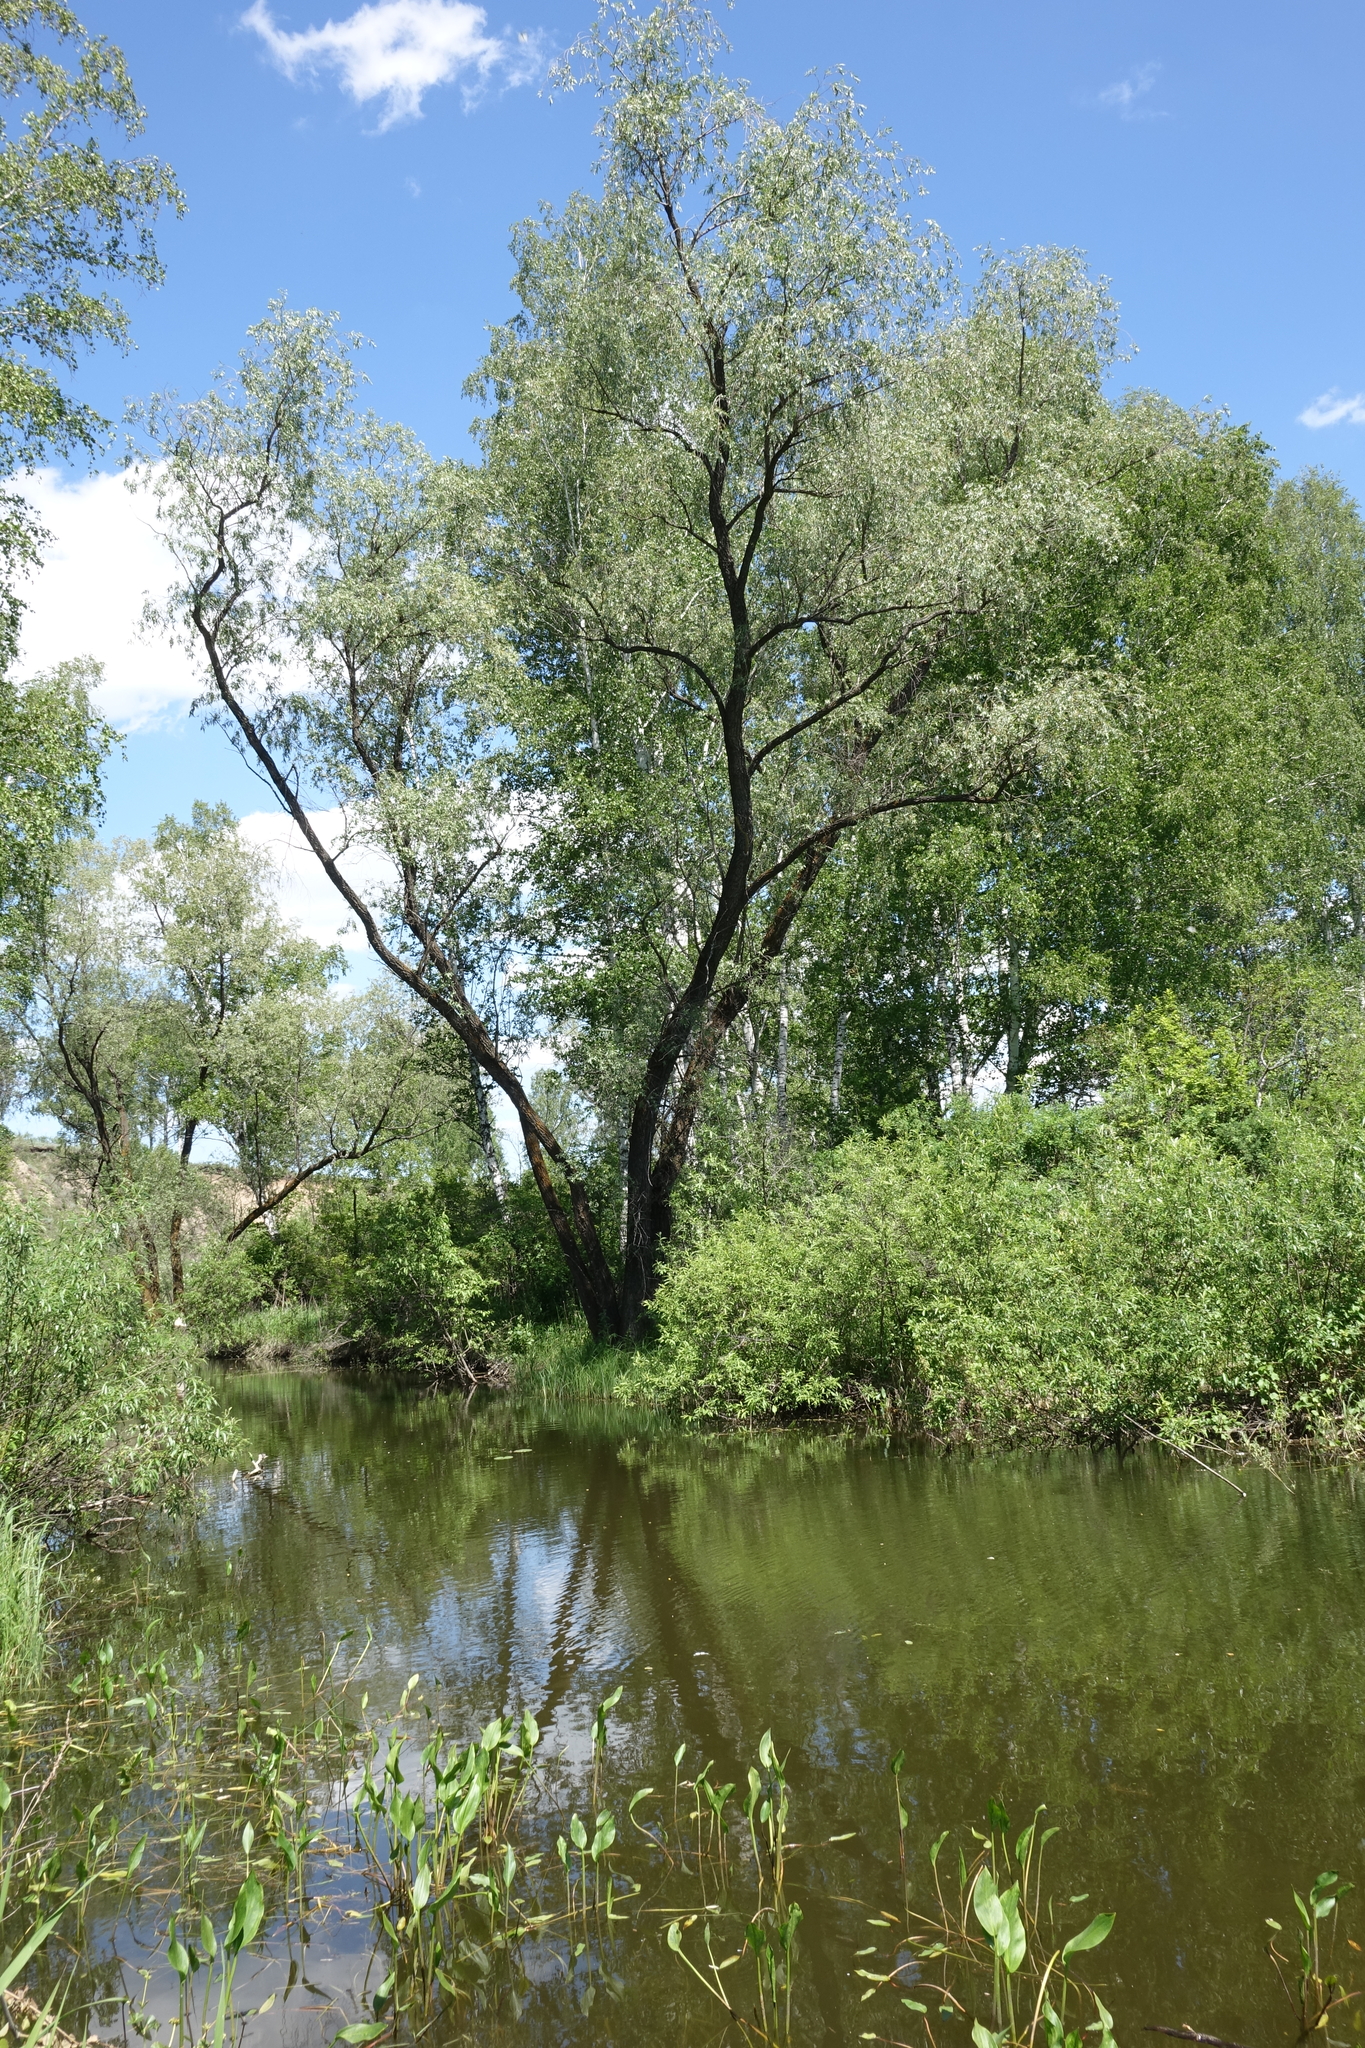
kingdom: Plantae
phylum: Tracheophyta
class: Magnoliopsida
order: Malpighiales
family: Salicaceae
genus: Salix
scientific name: Salix alba
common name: White willow
